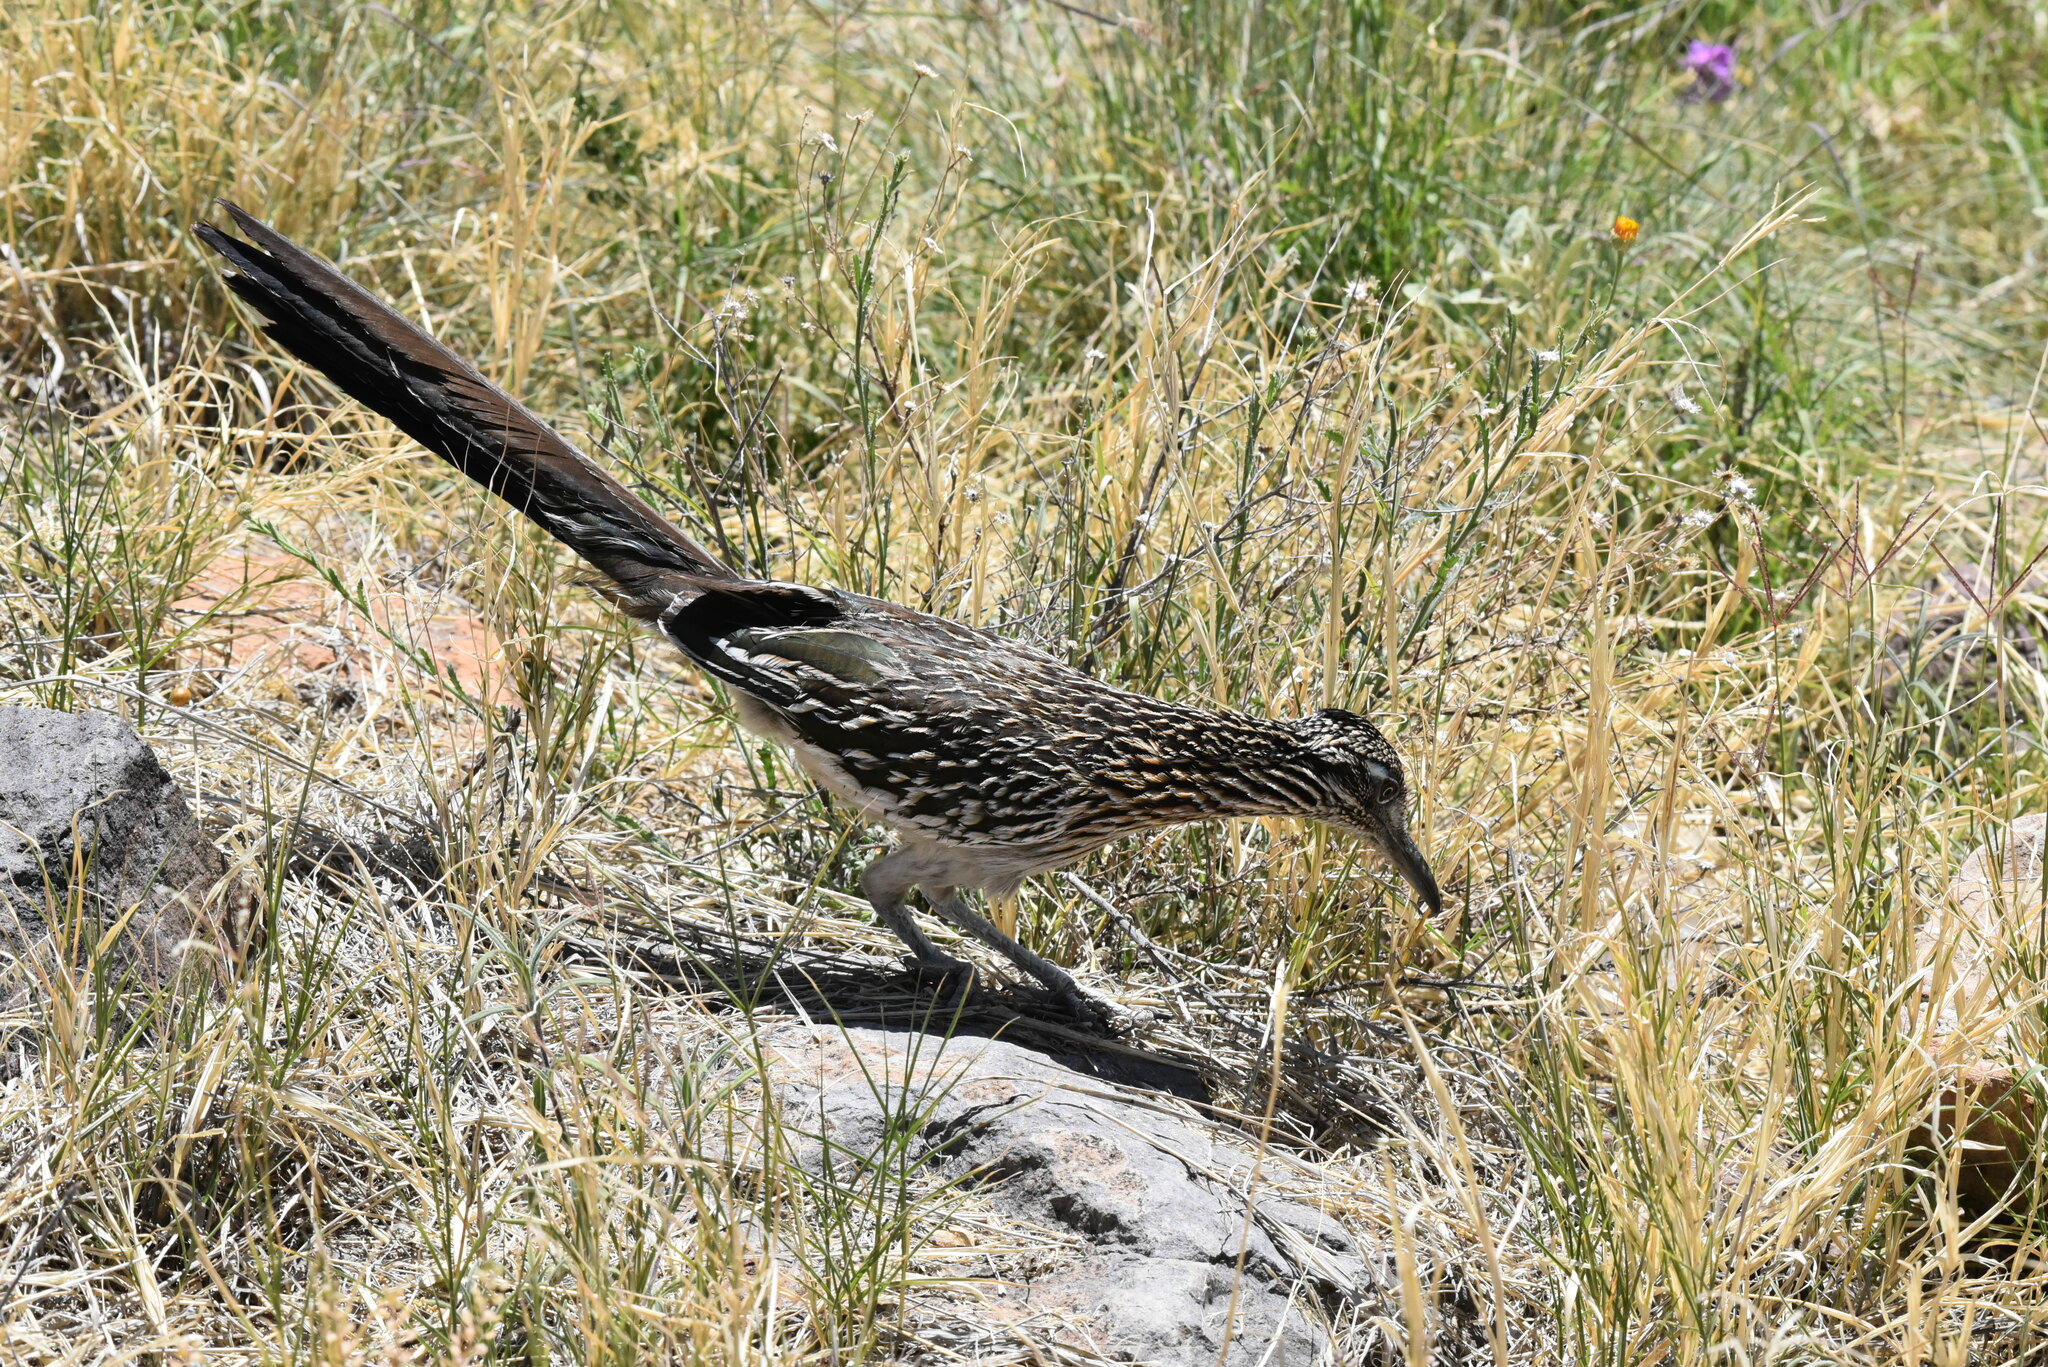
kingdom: Animalia
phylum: Chordata
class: Aves
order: Cuculiformes
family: Cuculidae
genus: Geococcyx
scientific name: Geococcyx californianus
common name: Greater roadrunner
